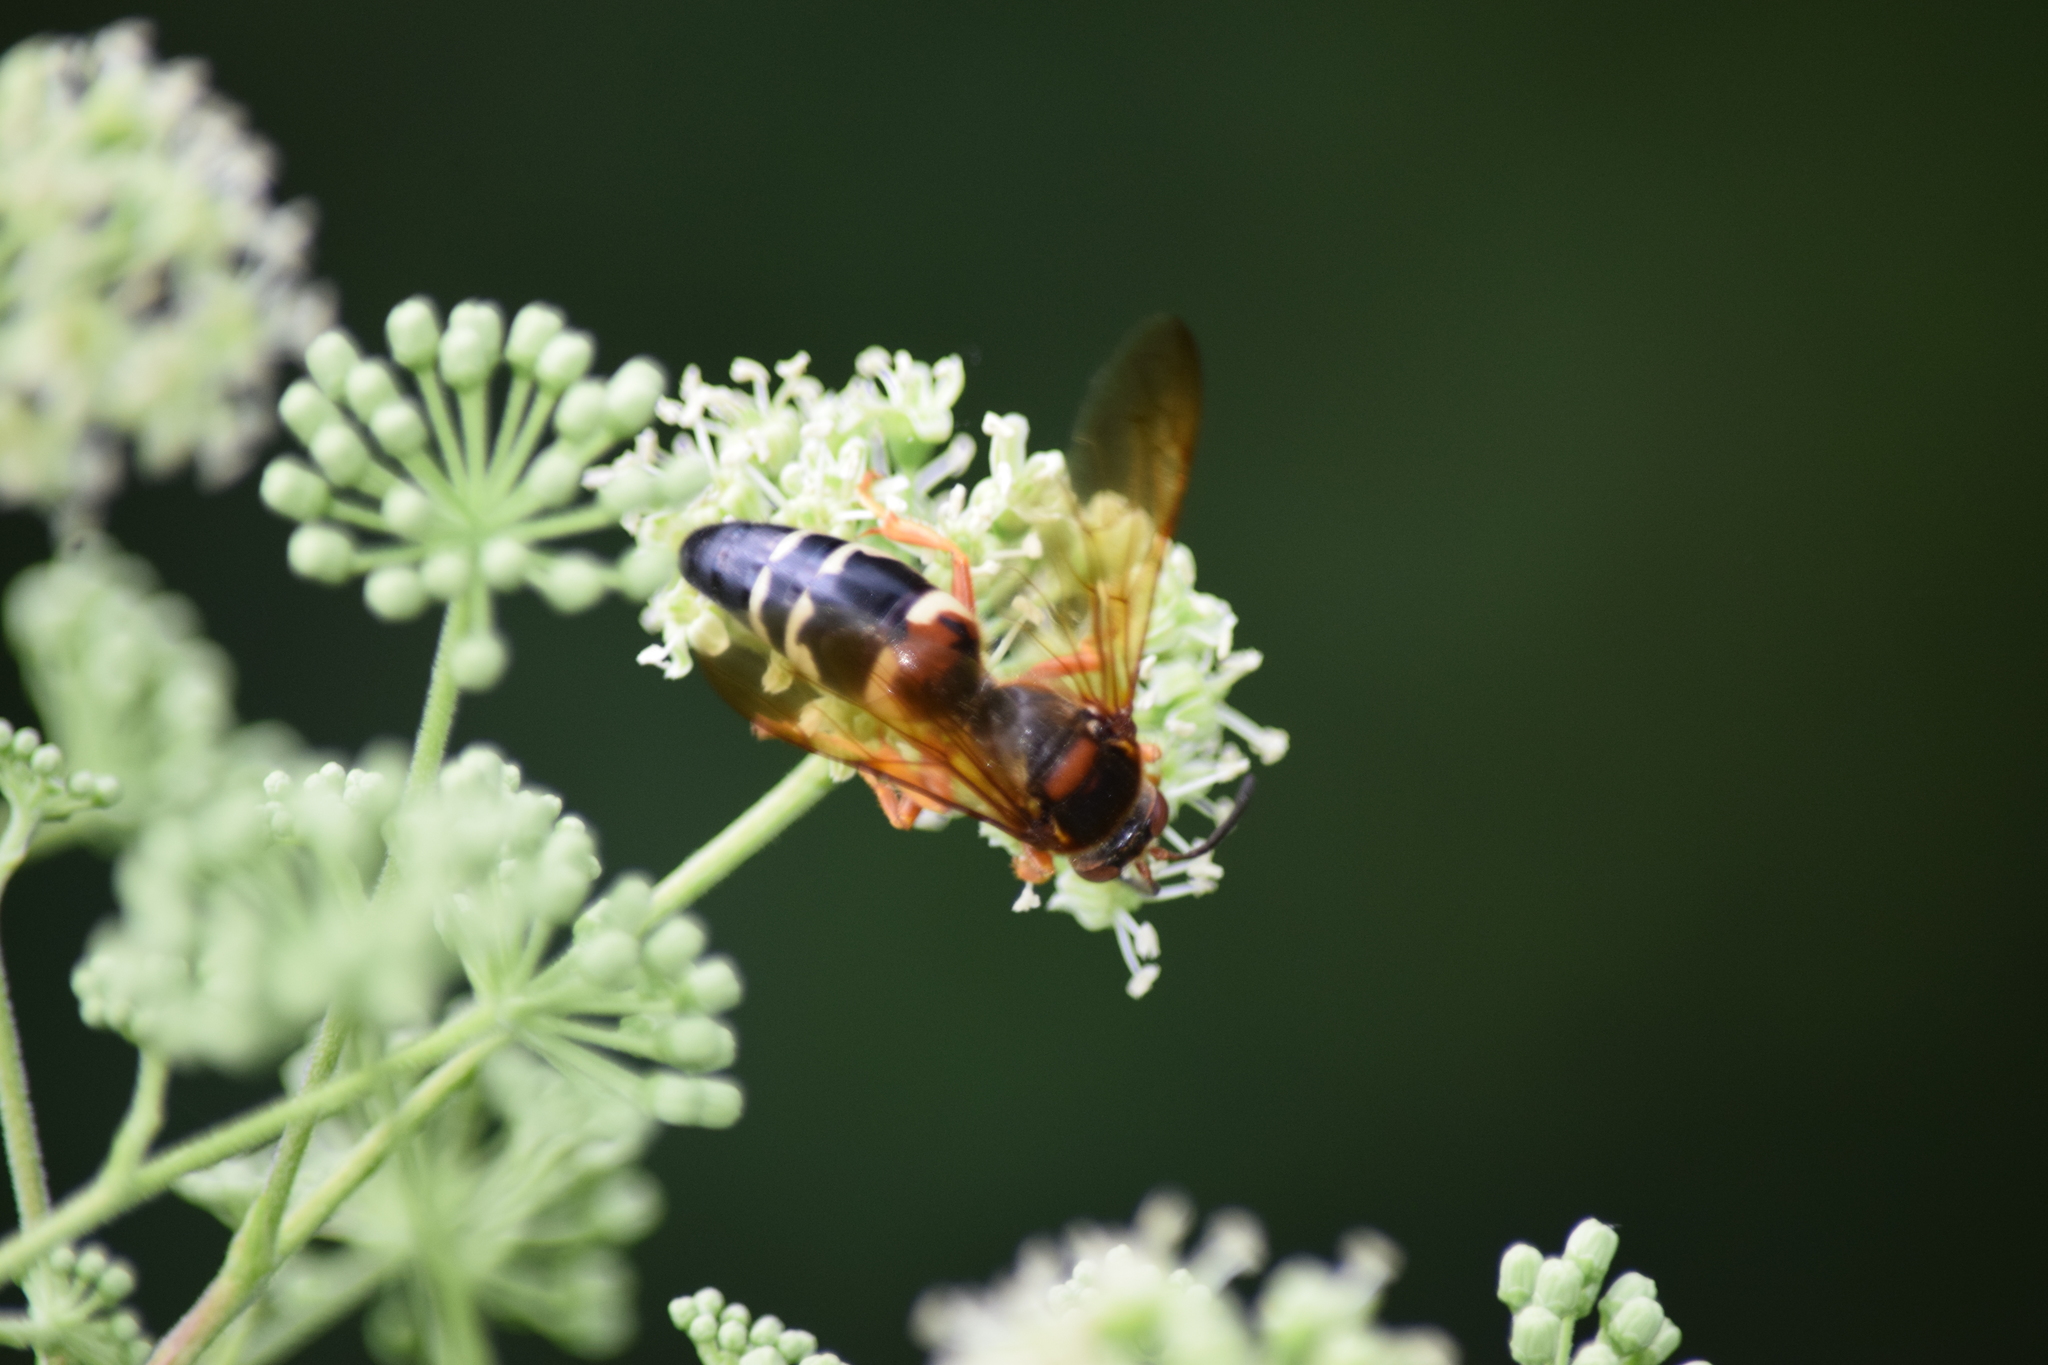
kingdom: Animalia
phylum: Arthropoda
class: Insecta
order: Hymenoptera
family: Crabronidae
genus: Sphecius
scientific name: Sphecius speciosus
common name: Cicada killer
